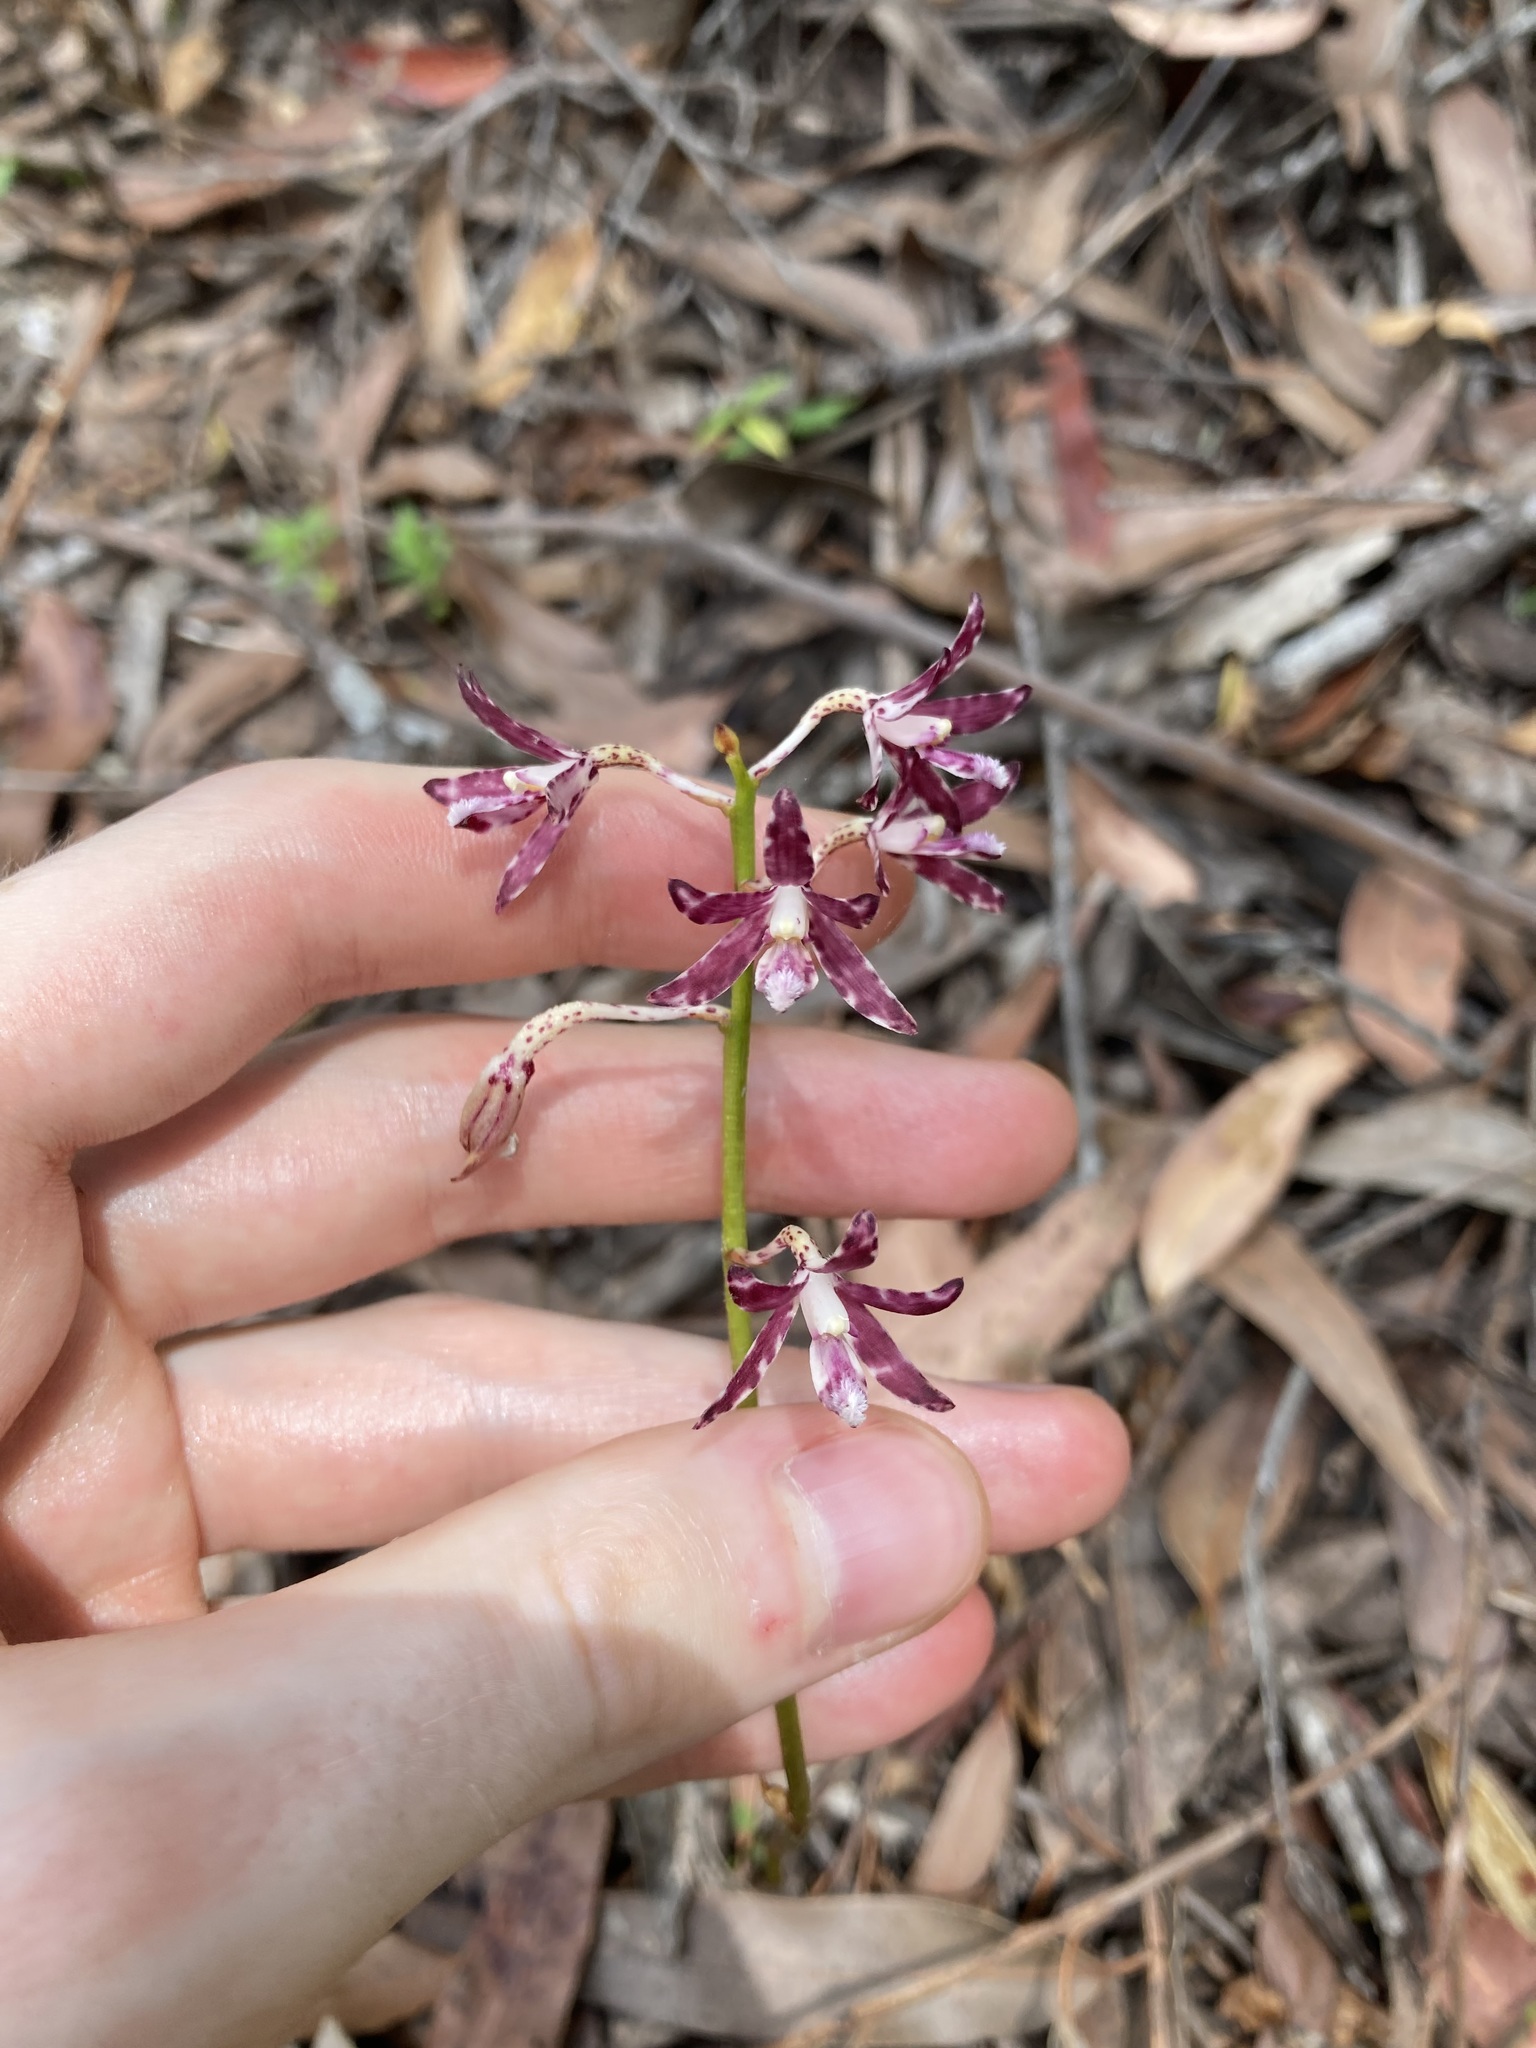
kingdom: Plantae
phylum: Tracheophyta
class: Liliopsida
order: Asparagales
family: Orchidaceae
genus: Dipodium
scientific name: Dipodium variegatum
